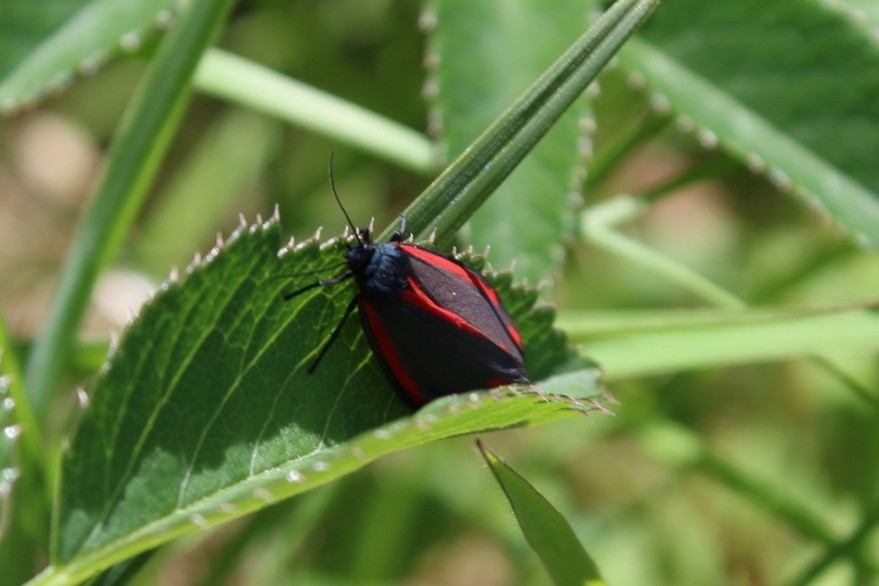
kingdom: Animalia
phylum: Arthropoda
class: Insecta
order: Lepidoptera
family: Erebidae
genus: Tyria
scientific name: Tyria jacobaeae
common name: Cinnabar
